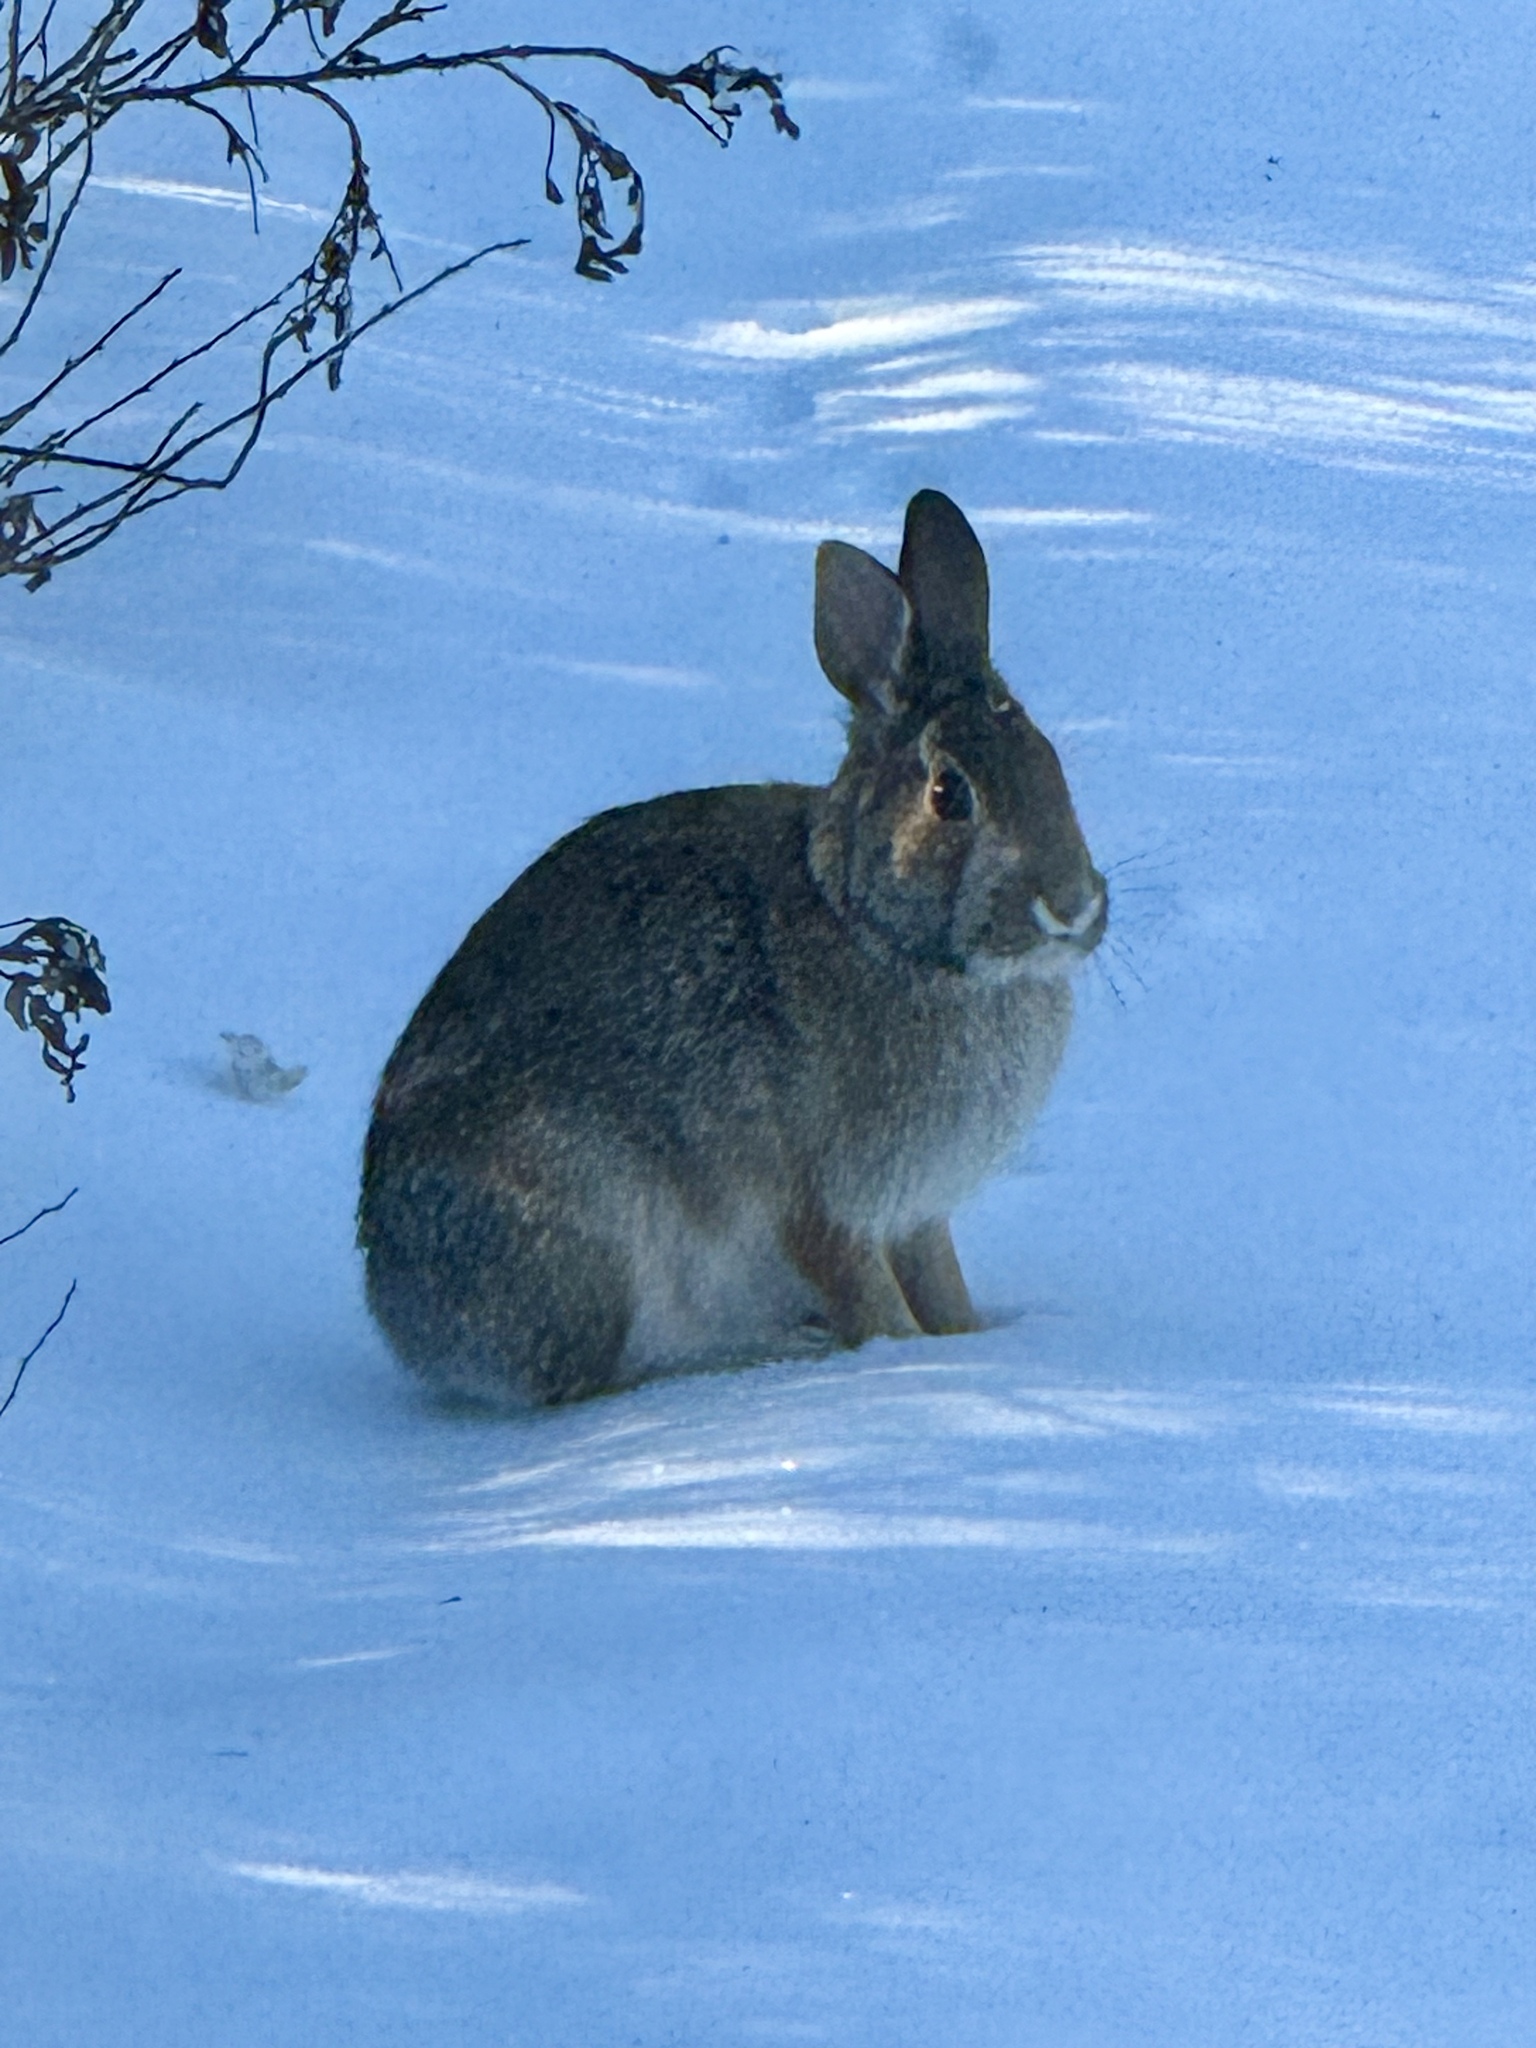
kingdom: Animalia
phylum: Chordata
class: Mammalia
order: Lagomorpha
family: Leporidae
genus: Sylvilagus
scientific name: Sylvilagus floridanus
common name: Eastern cottontail
